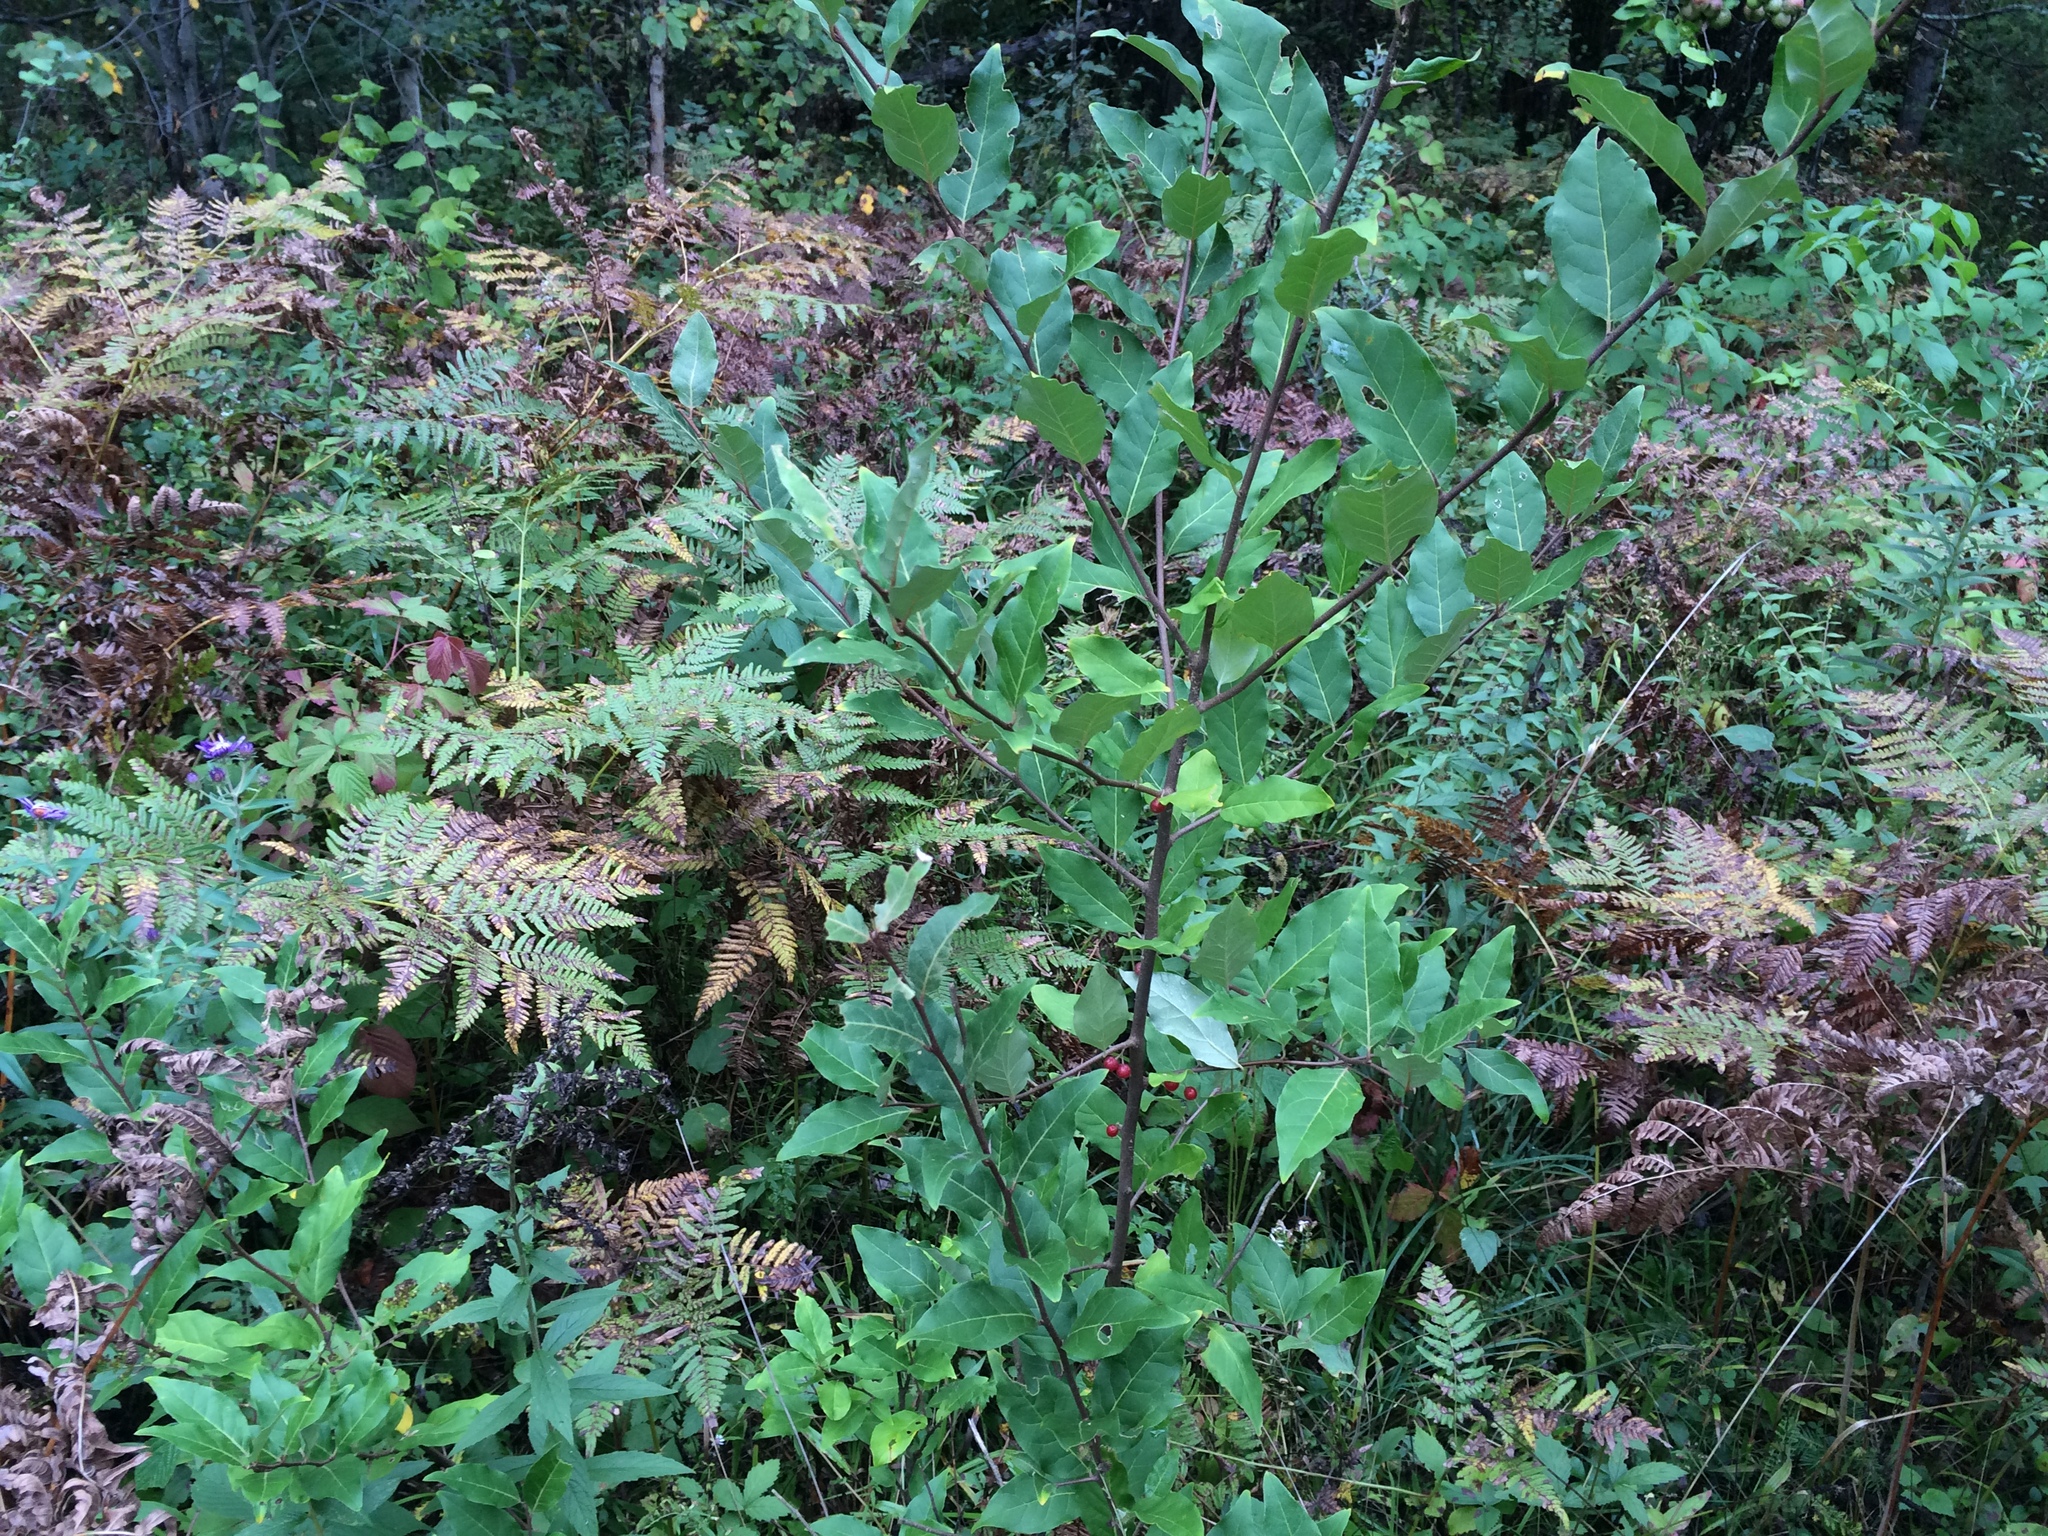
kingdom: Plantae
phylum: Tracheophyta
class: Magnoliopsida
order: Rosales
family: Elaeagnaceae
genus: Elaeagnus
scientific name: Elaeagnus umbellata
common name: Autumn olive
